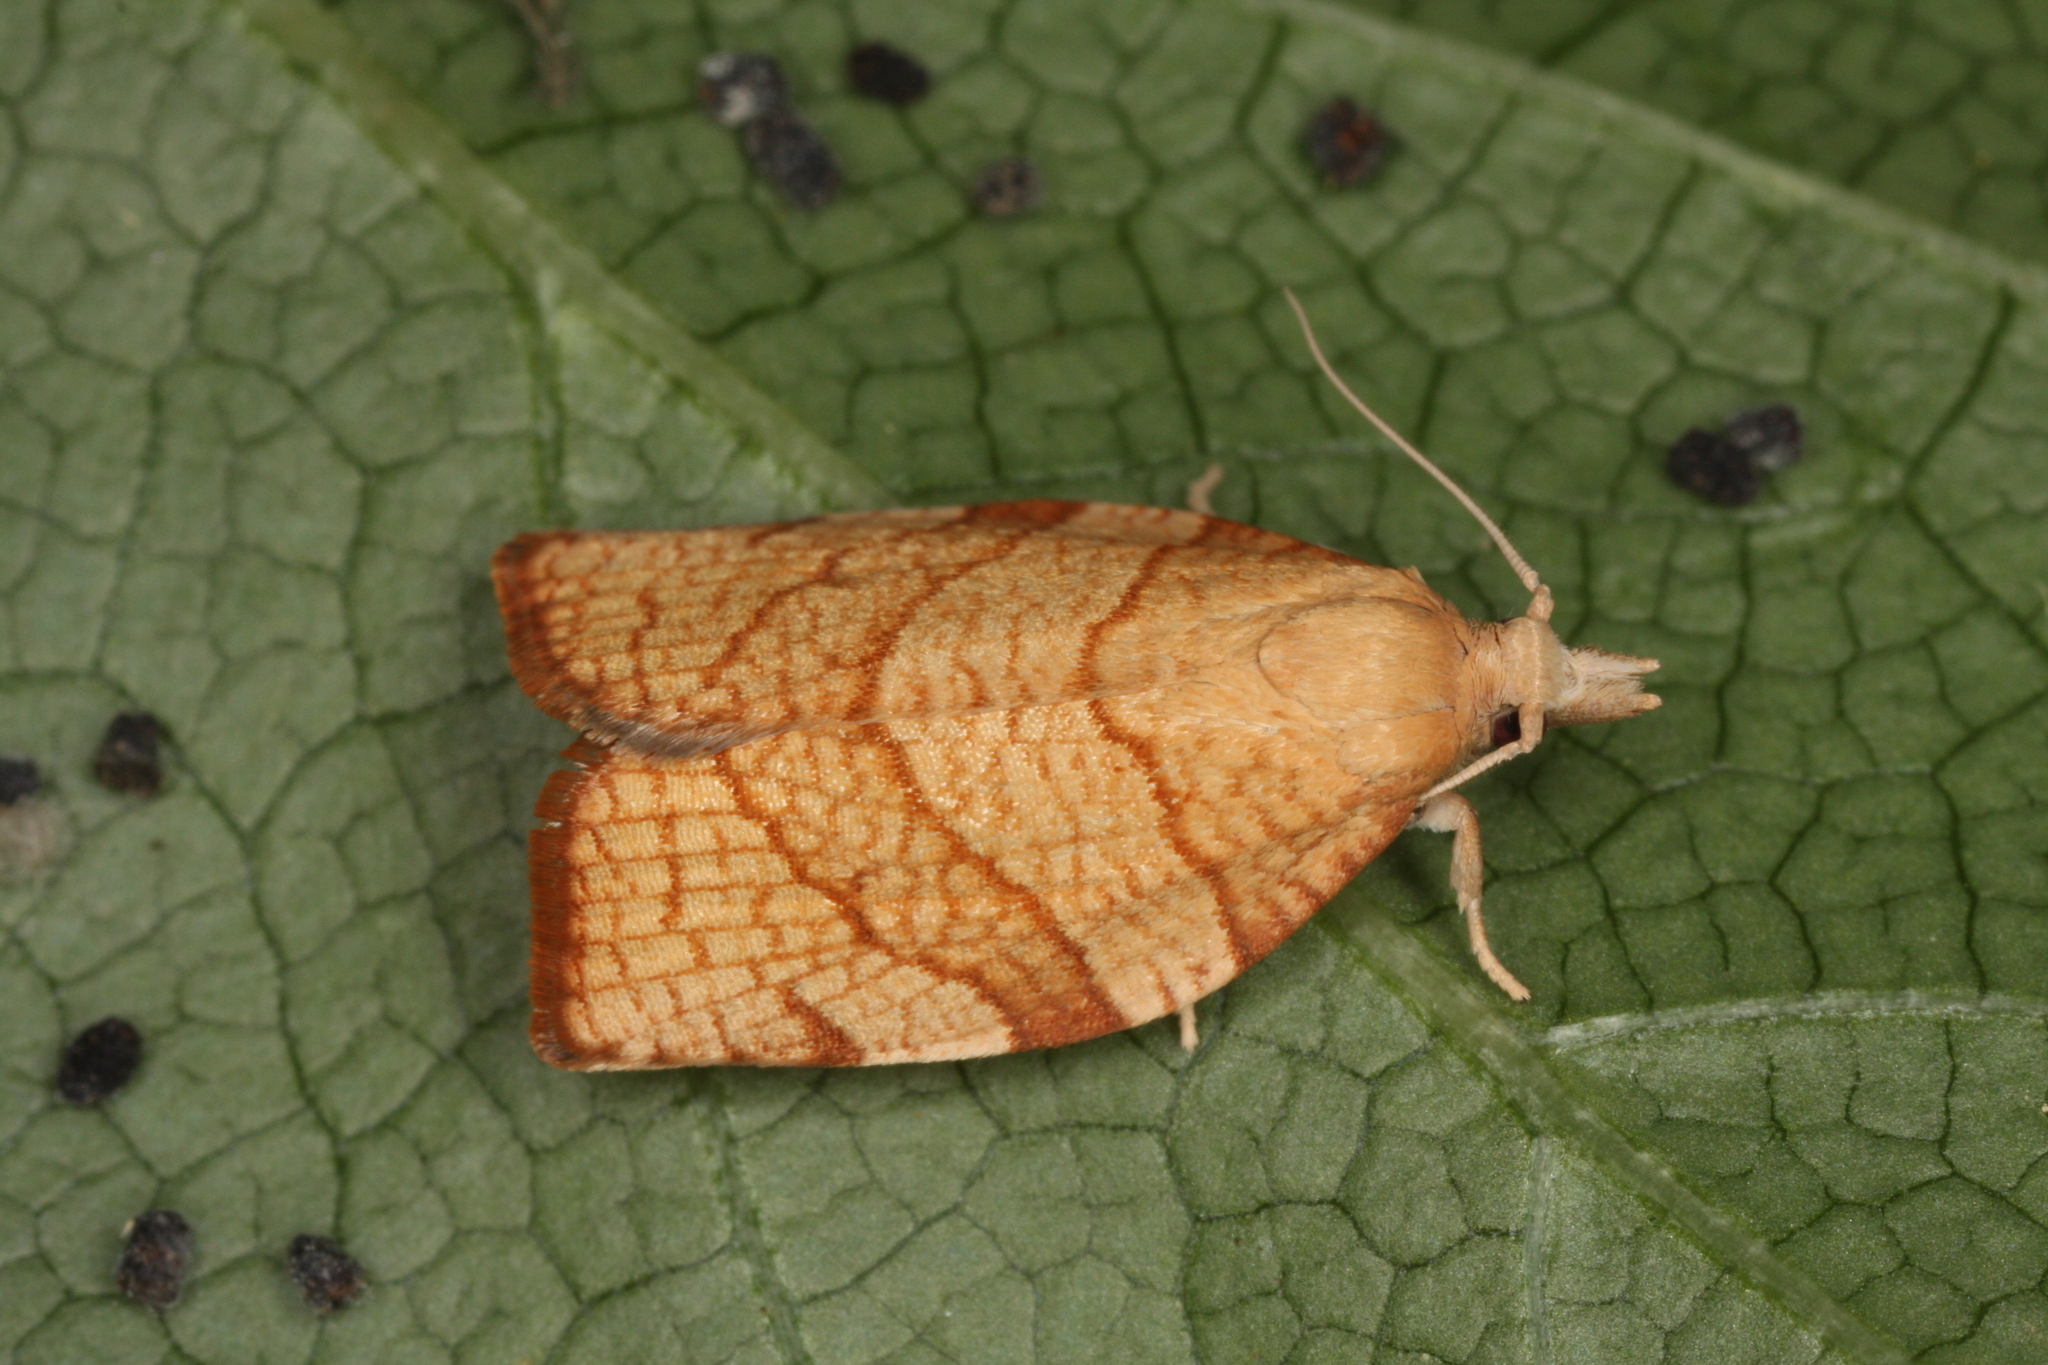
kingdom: Animalia
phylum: Arthropoda
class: Insecta
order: Lepidoptera
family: Tortricidae
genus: Pandemis
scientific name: Pandemis corylana
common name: Chequered fruit-tree tortrix
